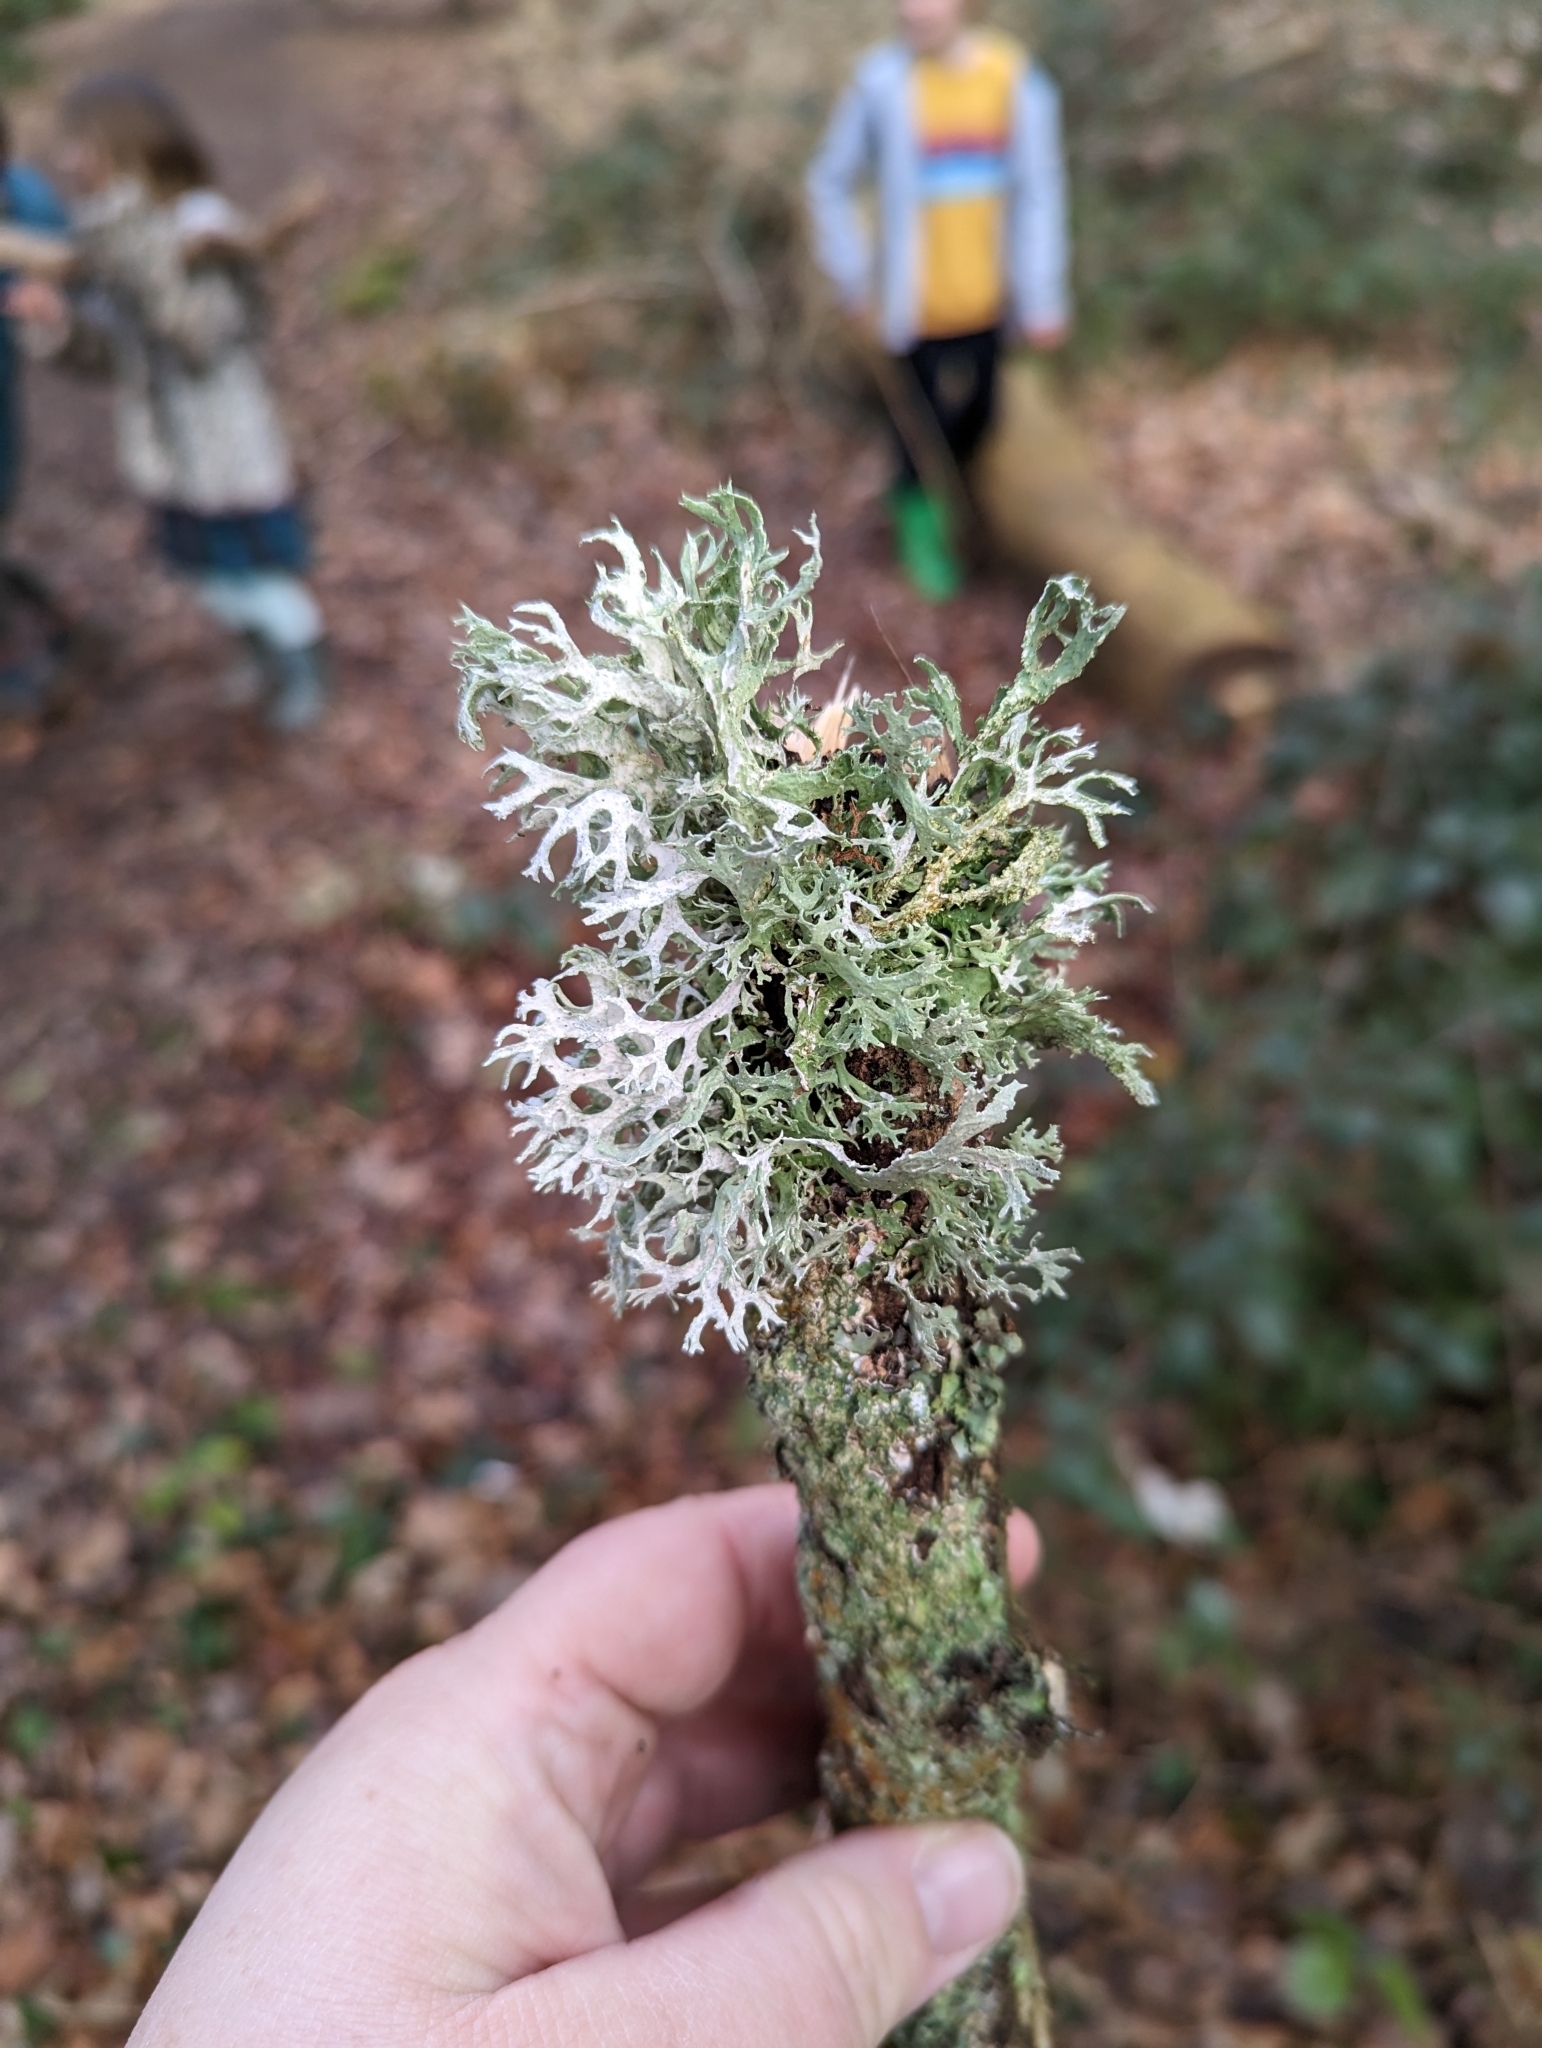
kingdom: Fungi
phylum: Ascomycota
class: Lecanoromycetes
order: Lecanorales
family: Parmeliaceae
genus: Evernia
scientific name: Evernia prunastri
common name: Oak moss
